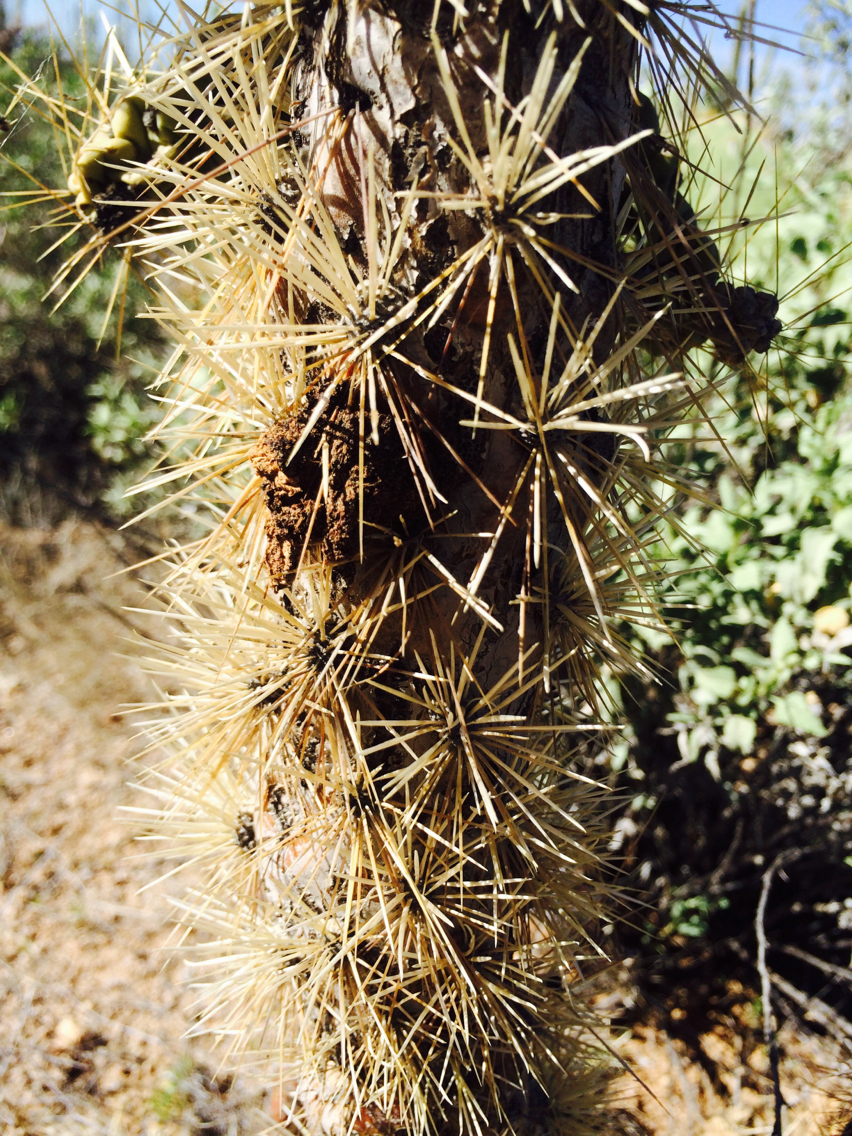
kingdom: Plantae
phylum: Tracheophyta
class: Magnoliopsida
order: Caryophyllales
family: Cactaceae
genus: Cylindropuntia
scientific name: Cylindropuntia fulgida
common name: Jumping cholla
